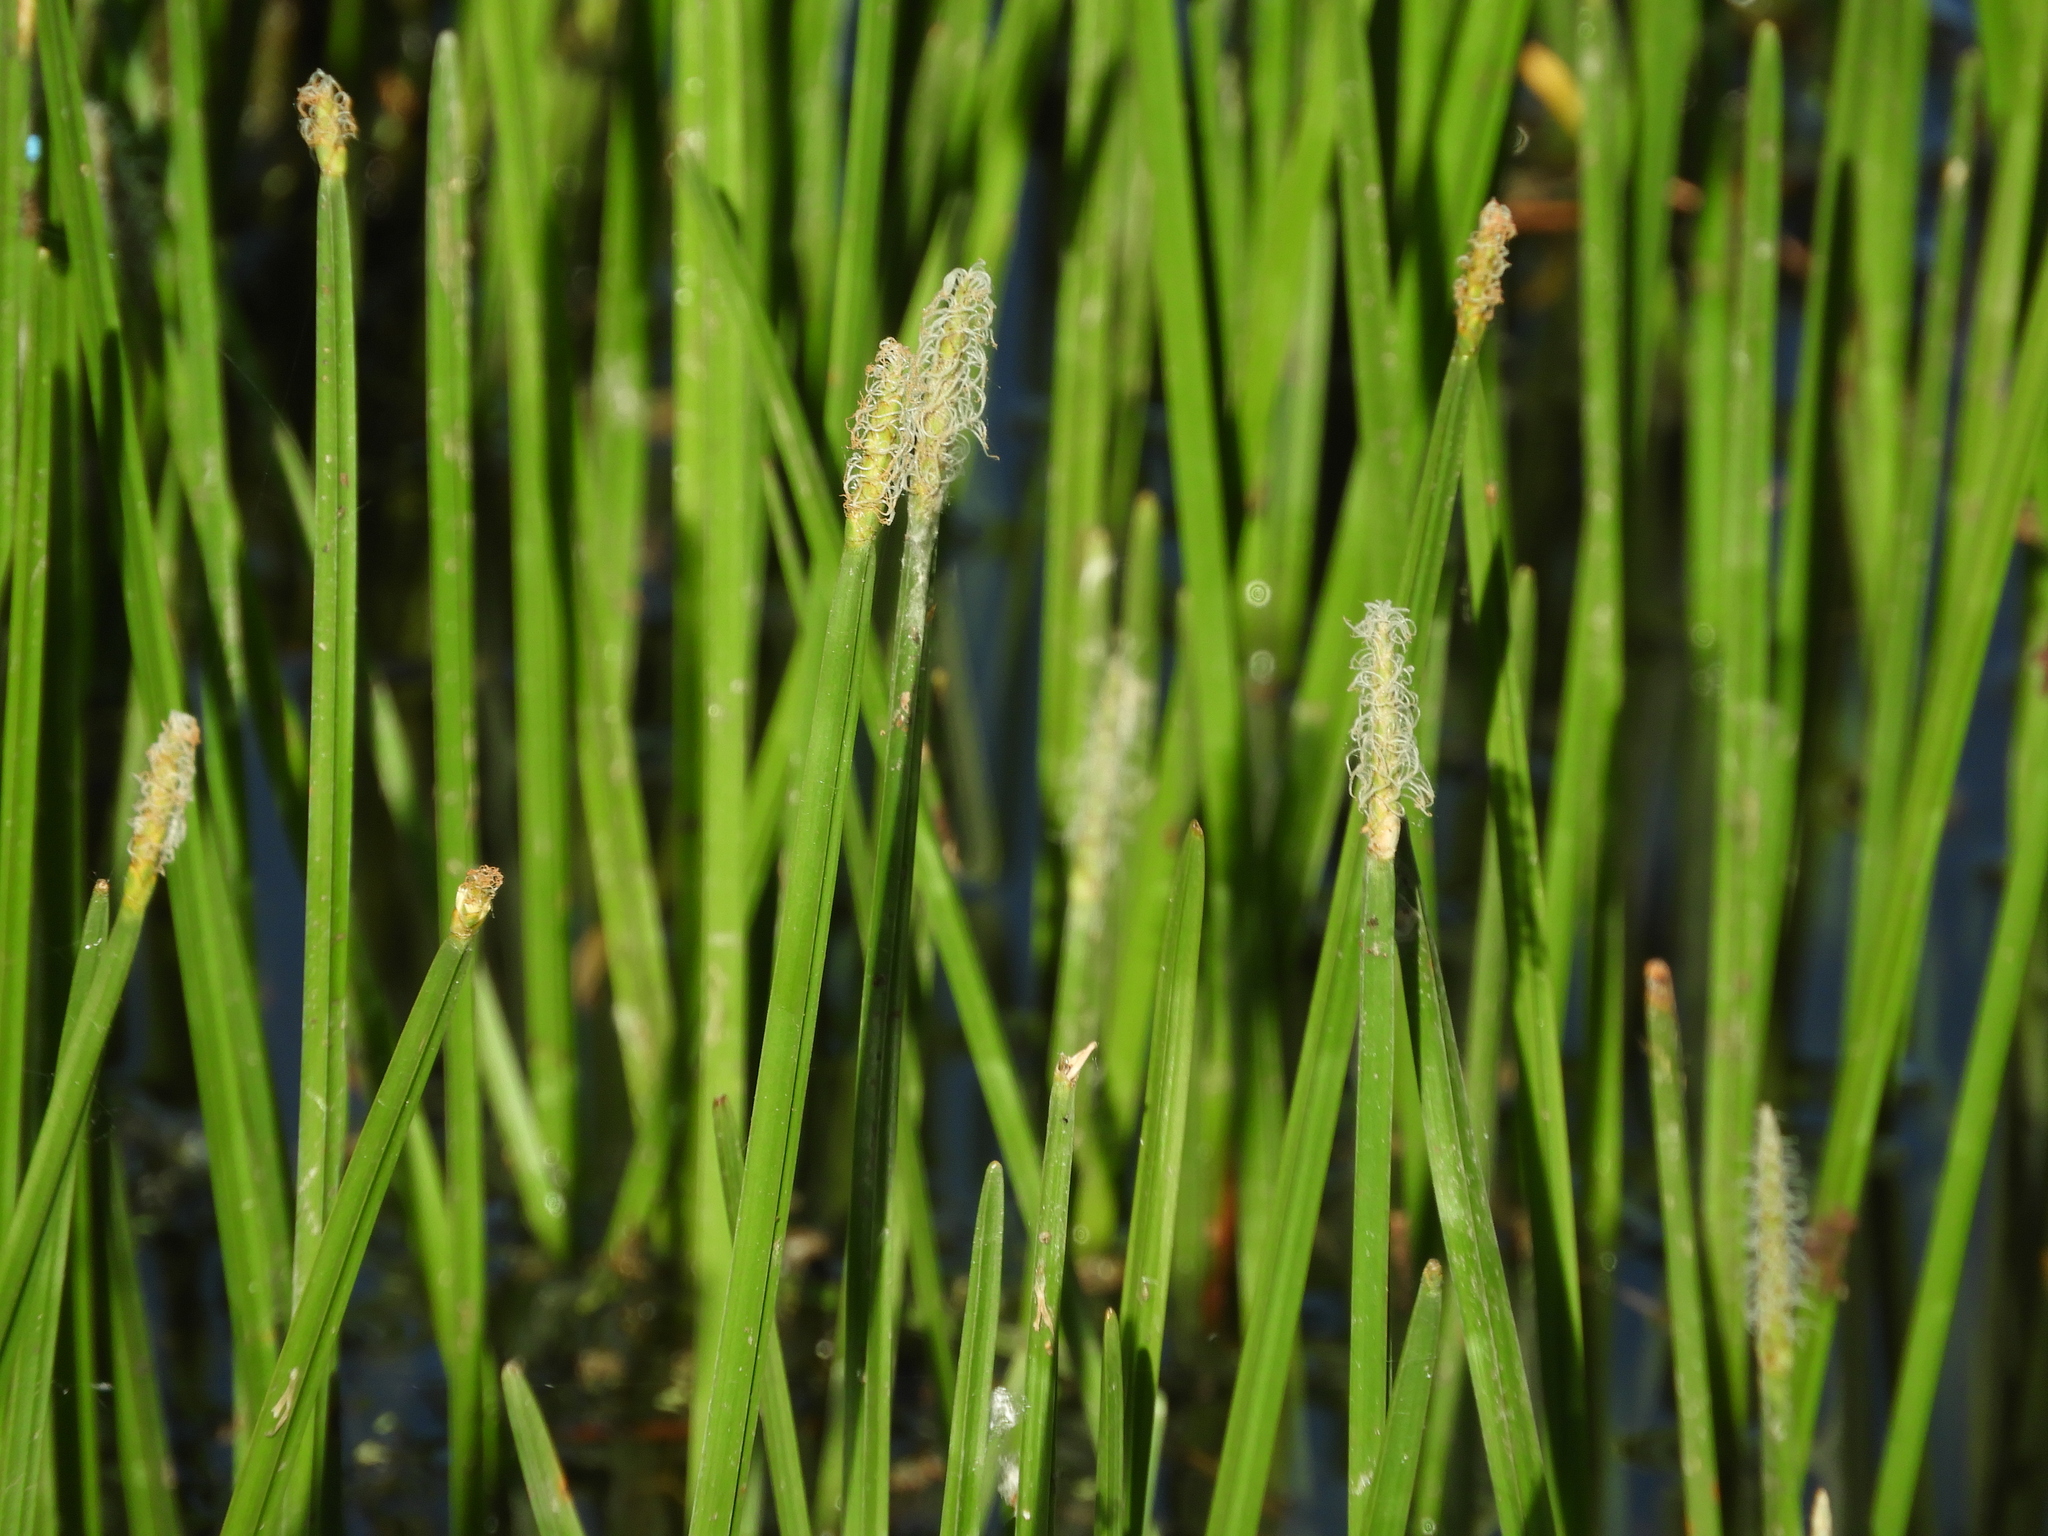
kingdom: Plantae
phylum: Tracheophyta
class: Liliopsida
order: Poales
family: Cyperaceae
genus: Eleocharis
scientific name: Eleocharis quadrangulata
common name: Square-stem spike-rush
